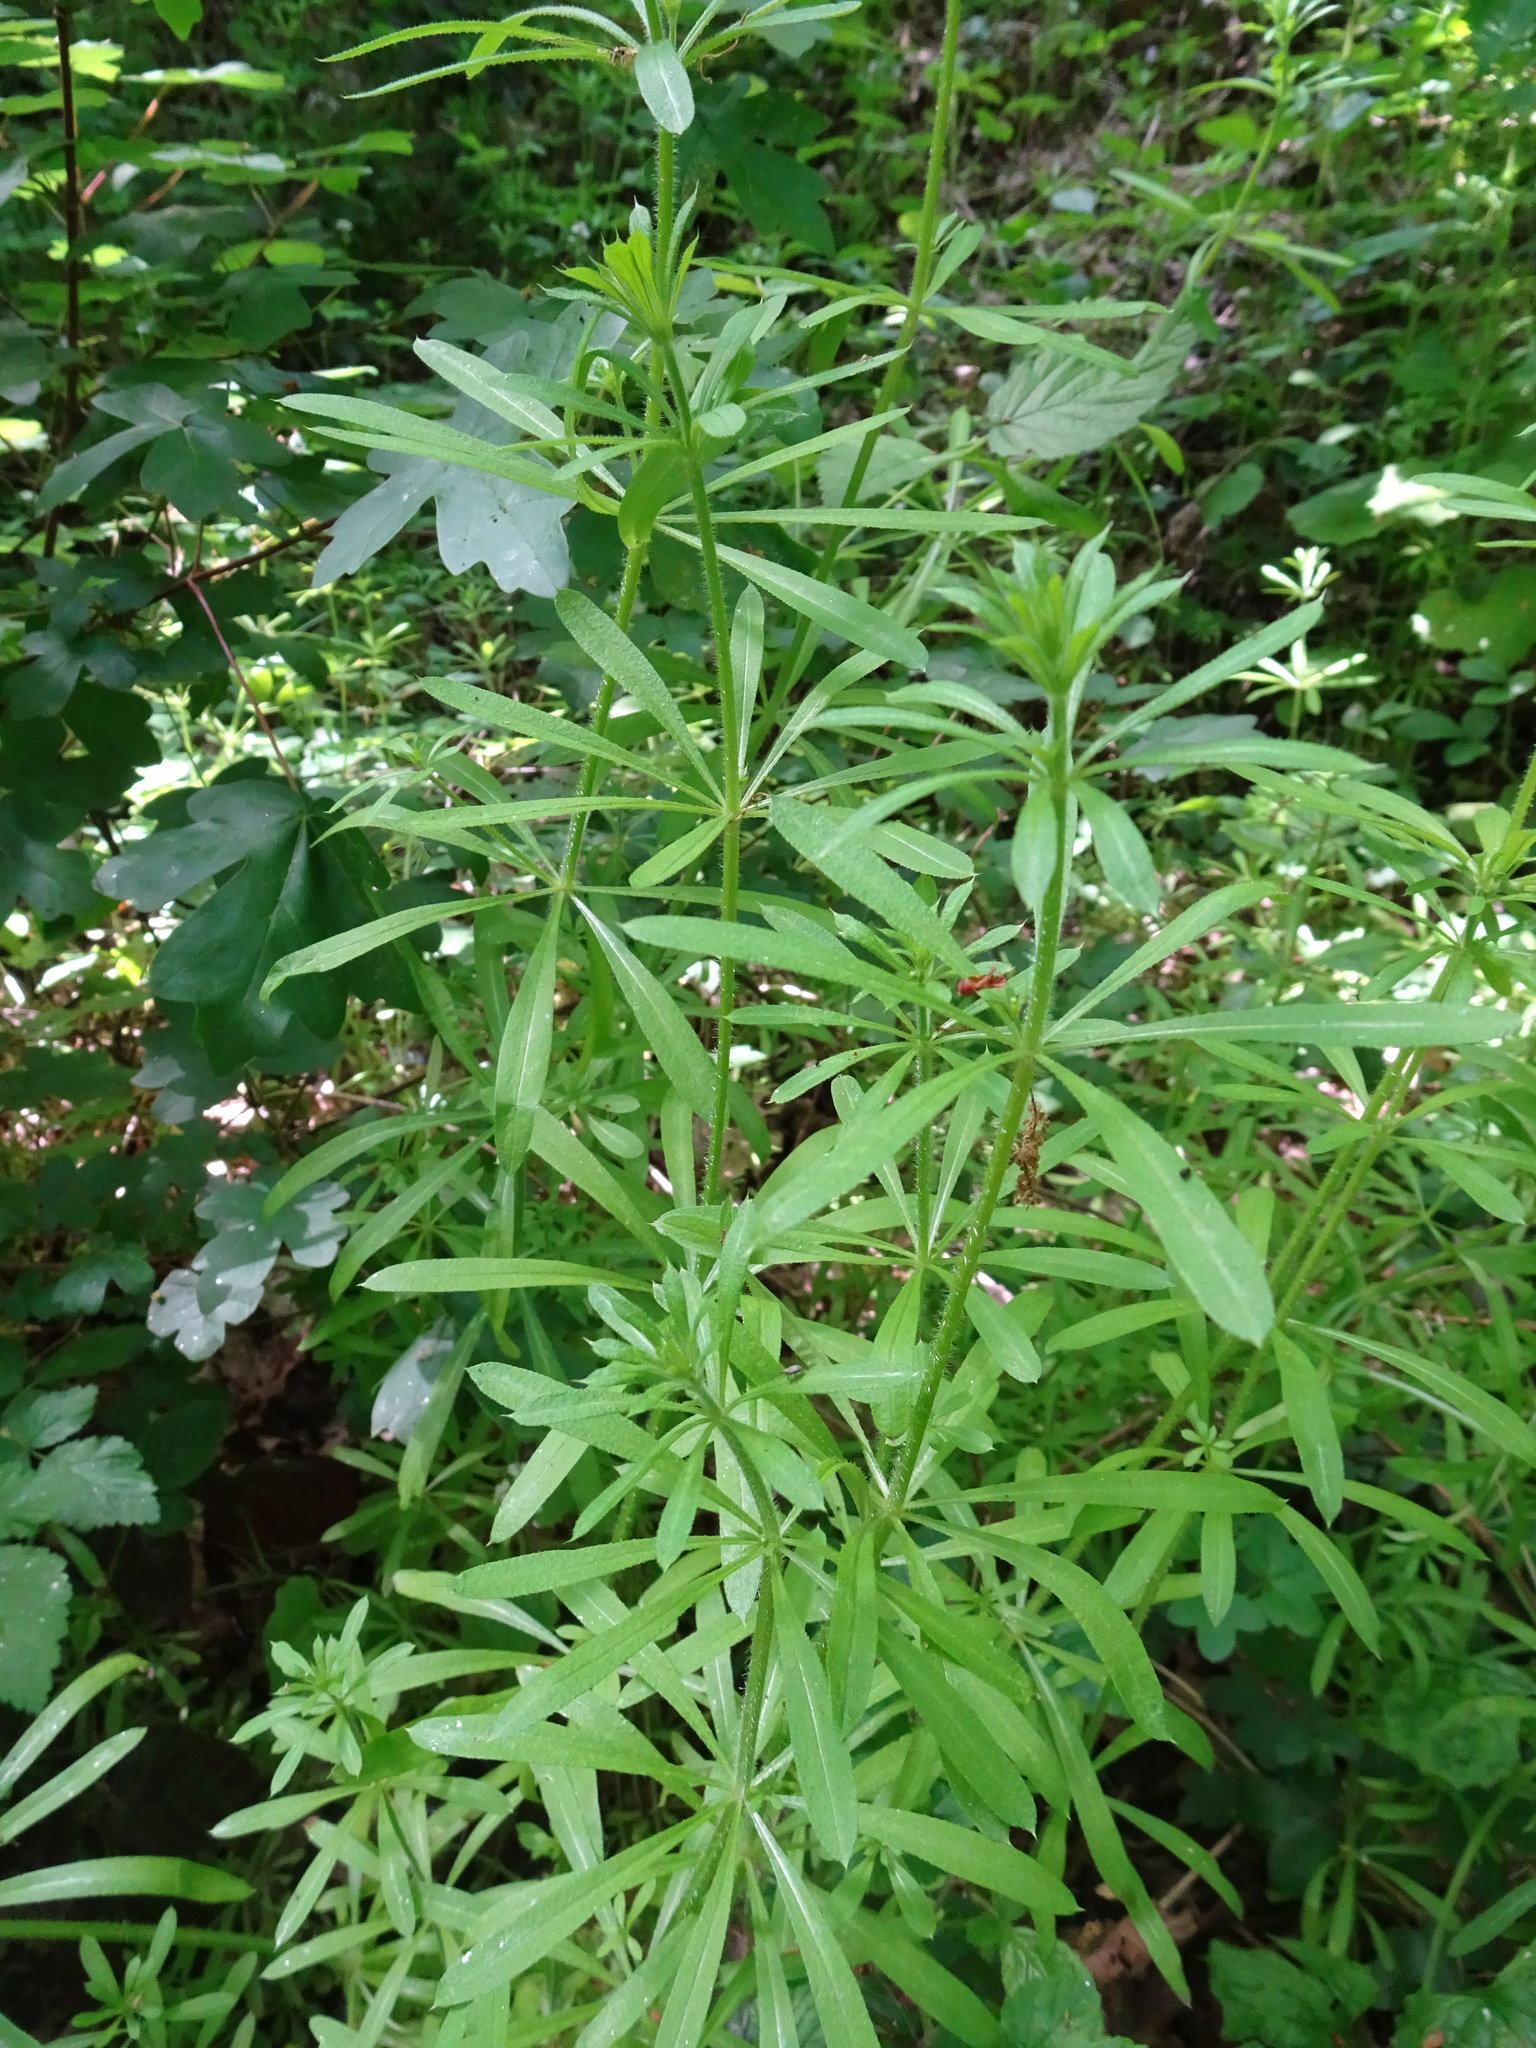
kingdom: Plantae
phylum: Tracheophyta
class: Magnoliopsida
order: Gentianales
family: Rubiaceae
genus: Galium
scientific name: Galium aparine
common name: Cleavers
